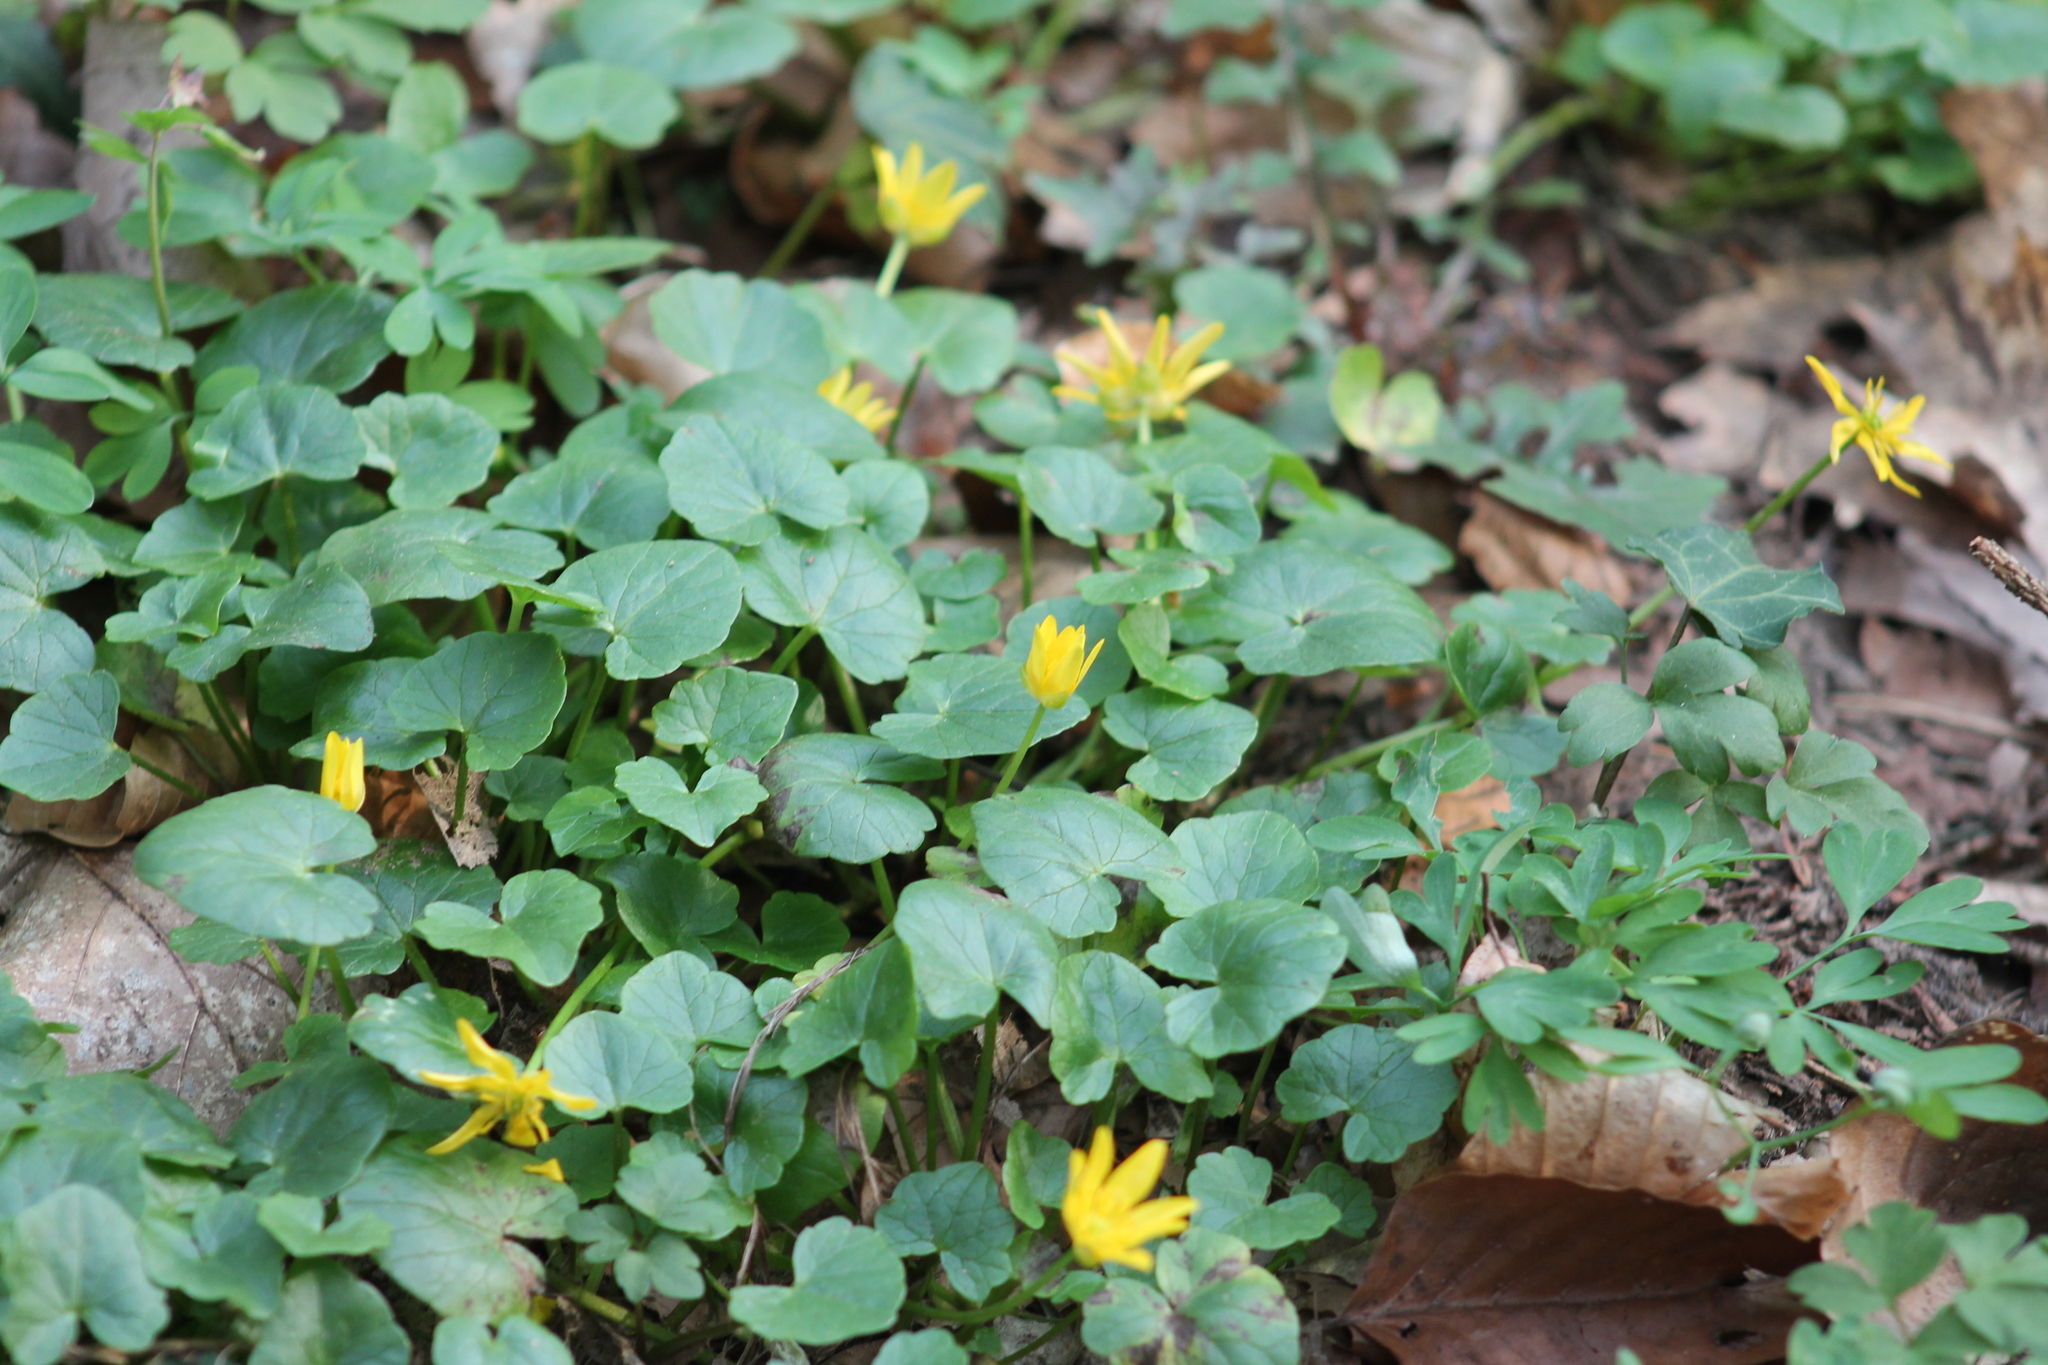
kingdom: Plantae
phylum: Tracheophyta
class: Magnoliopsida
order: Ranunculales
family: Ranunculaceae
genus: Ficaria
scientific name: Ficaria verna
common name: Lesser celandine
